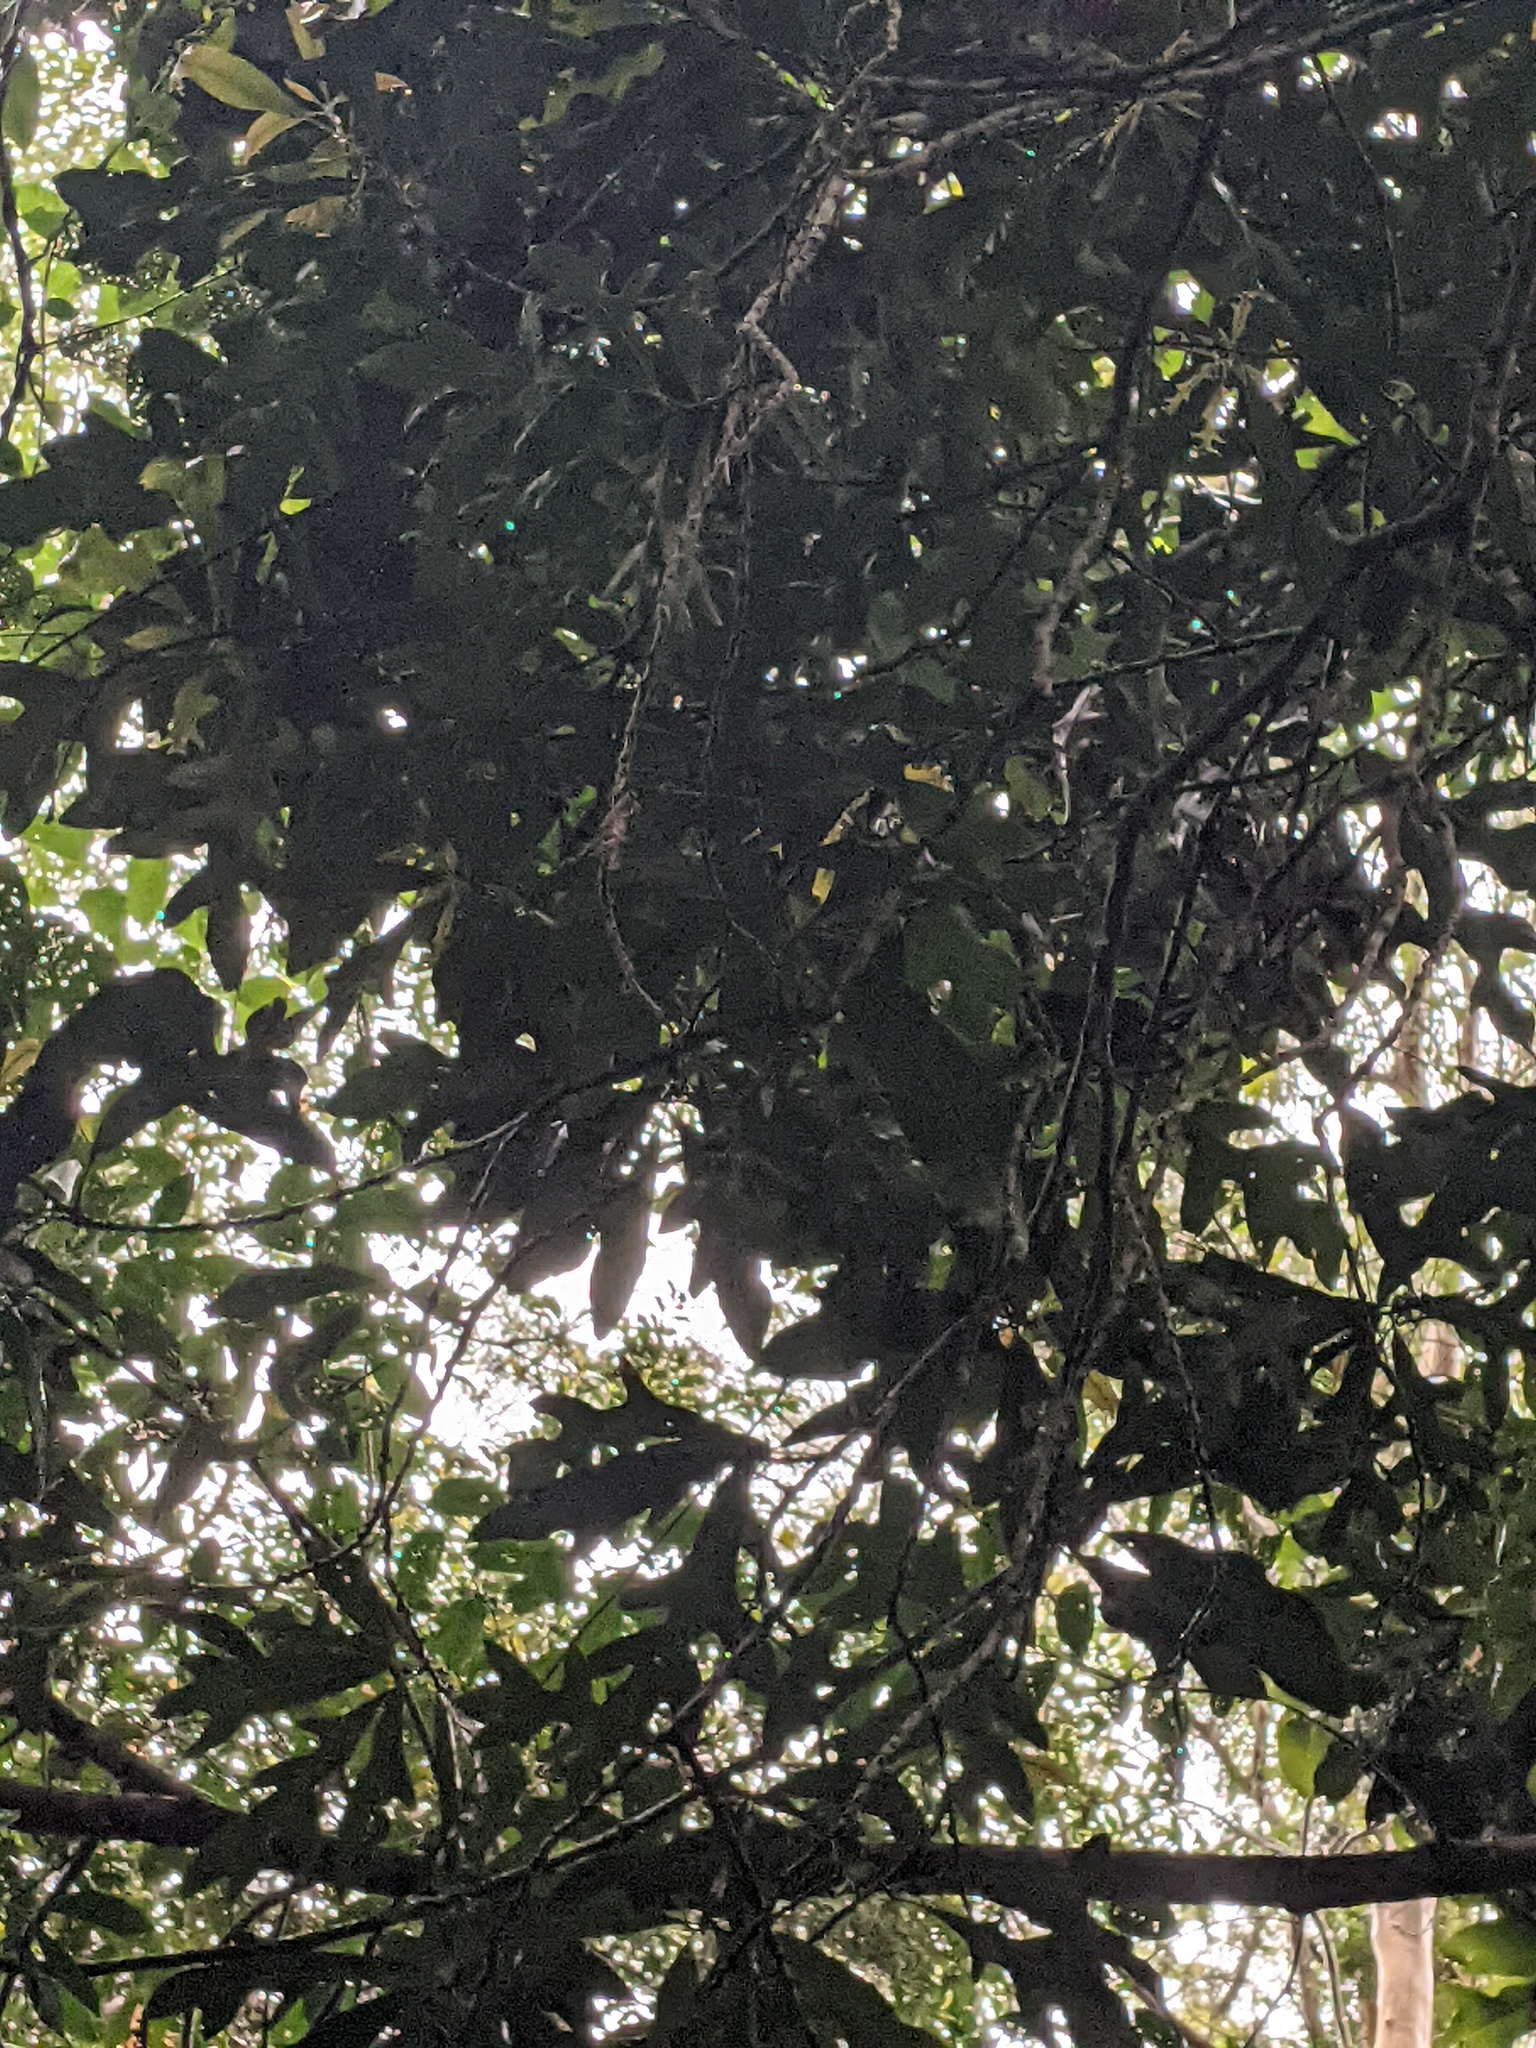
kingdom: Plantae
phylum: Tracheophyta
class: Magnoliopsida
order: Proteales
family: Proteaceae
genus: Stenocarpus
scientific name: Stenocarpus sinuatus
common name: Queensland fire-wheel-tree
